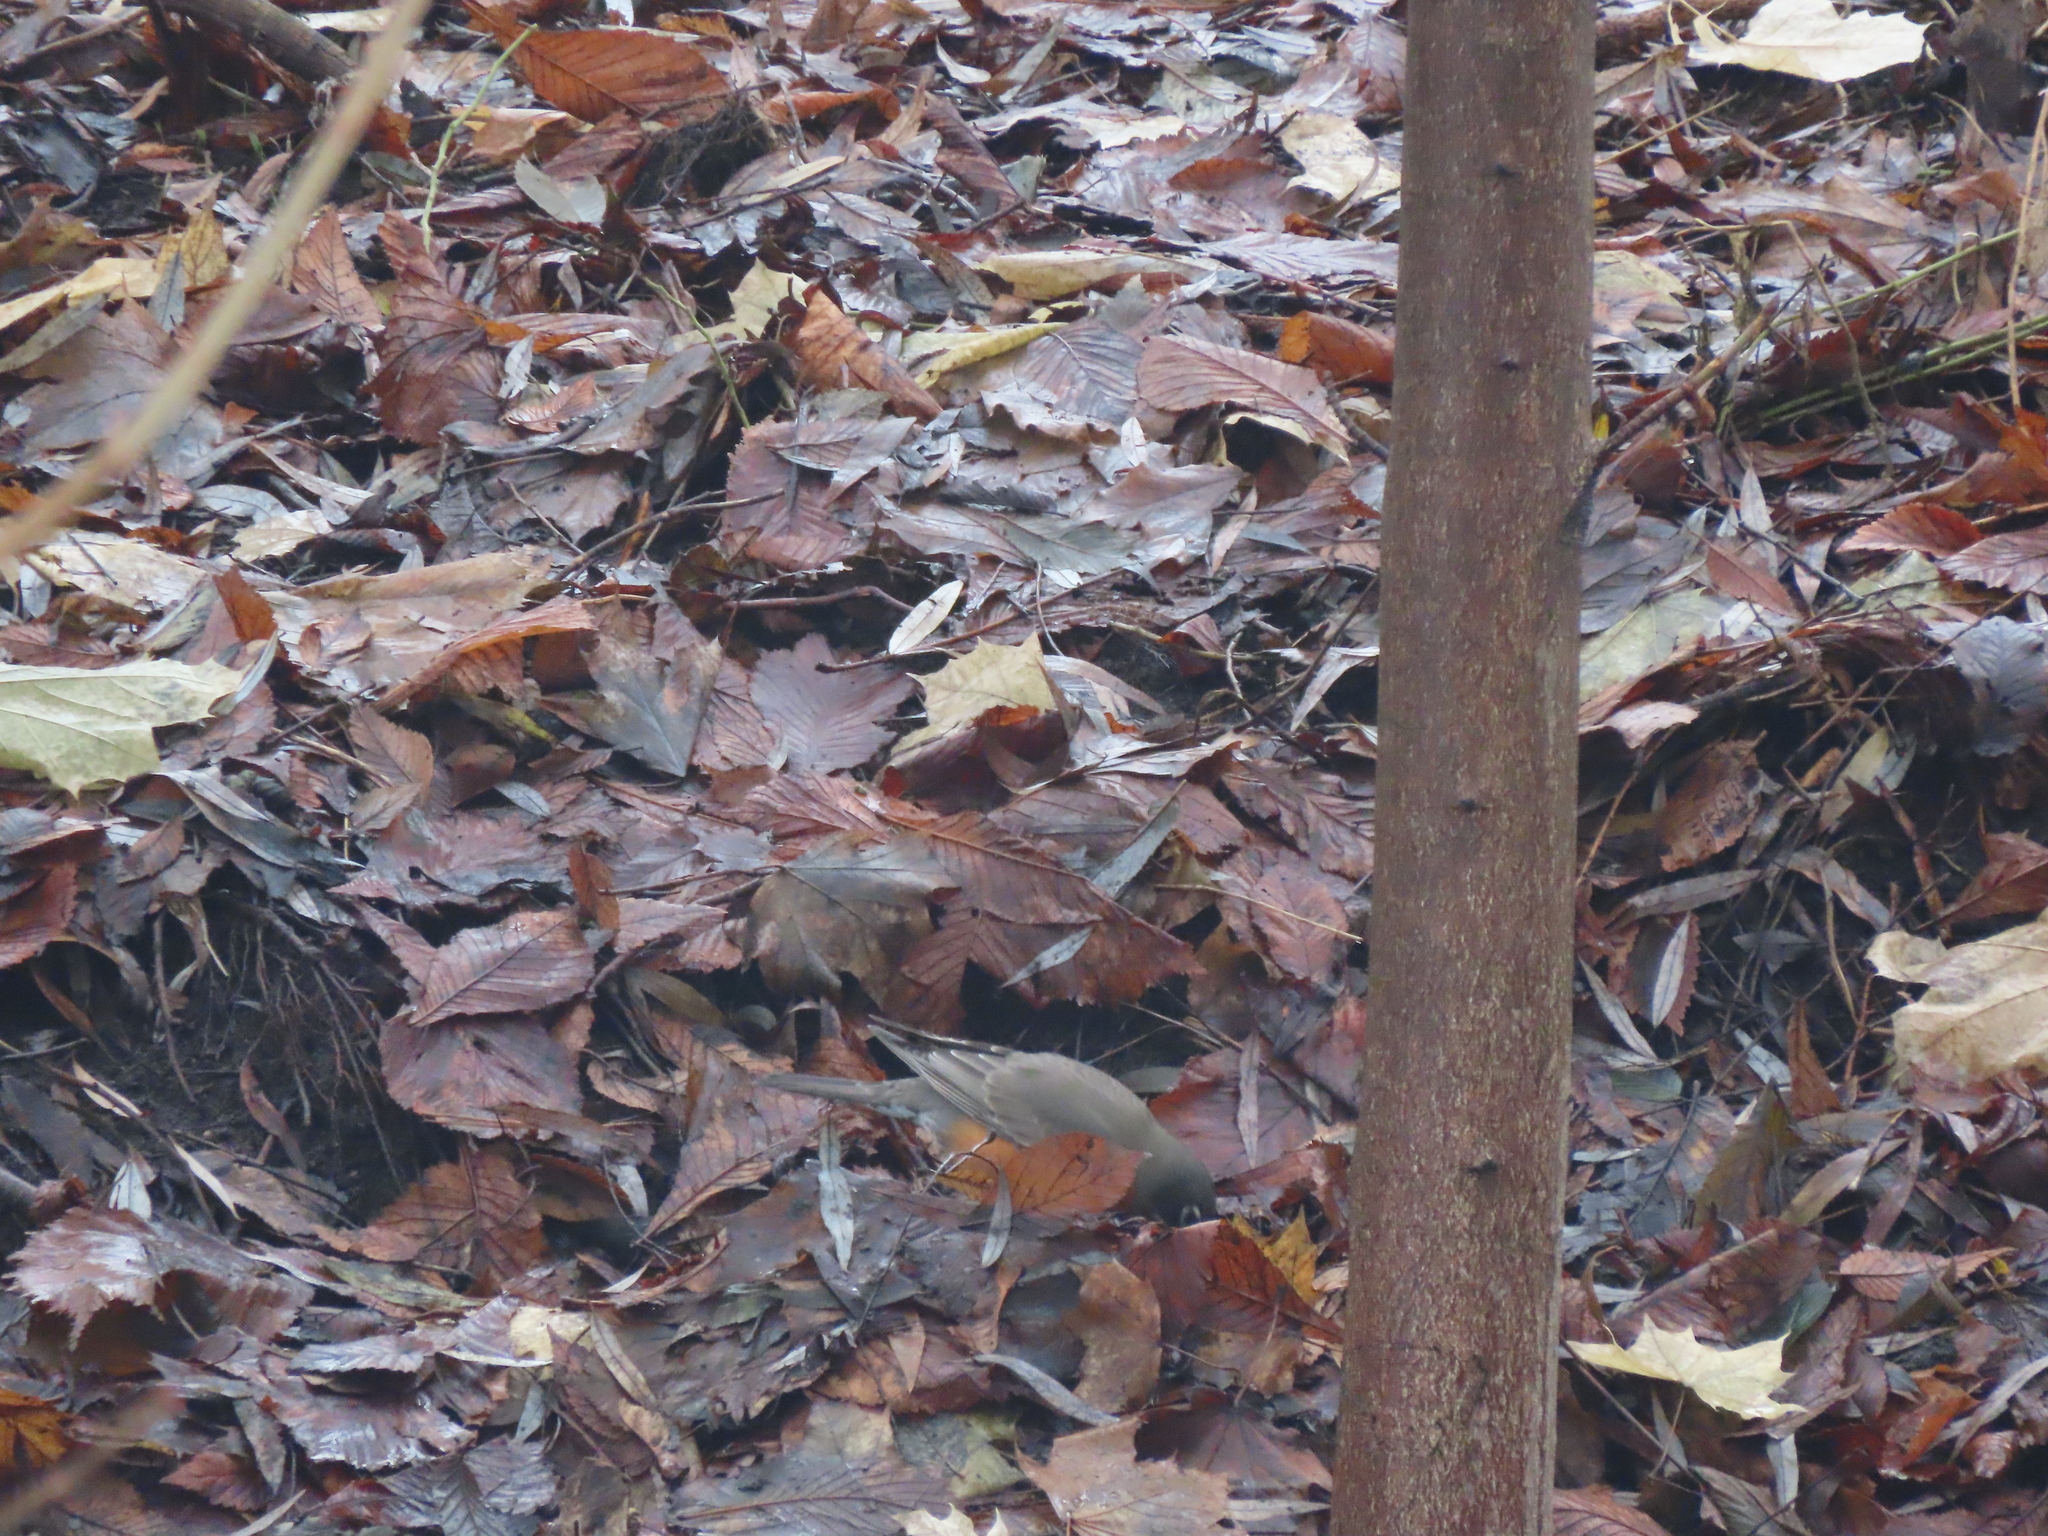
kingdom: Animalia
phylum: Chordata
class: Aves
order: Passeriformes
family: Turdidae
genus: Turdus
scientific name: Turdus migratorius
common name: American robin
